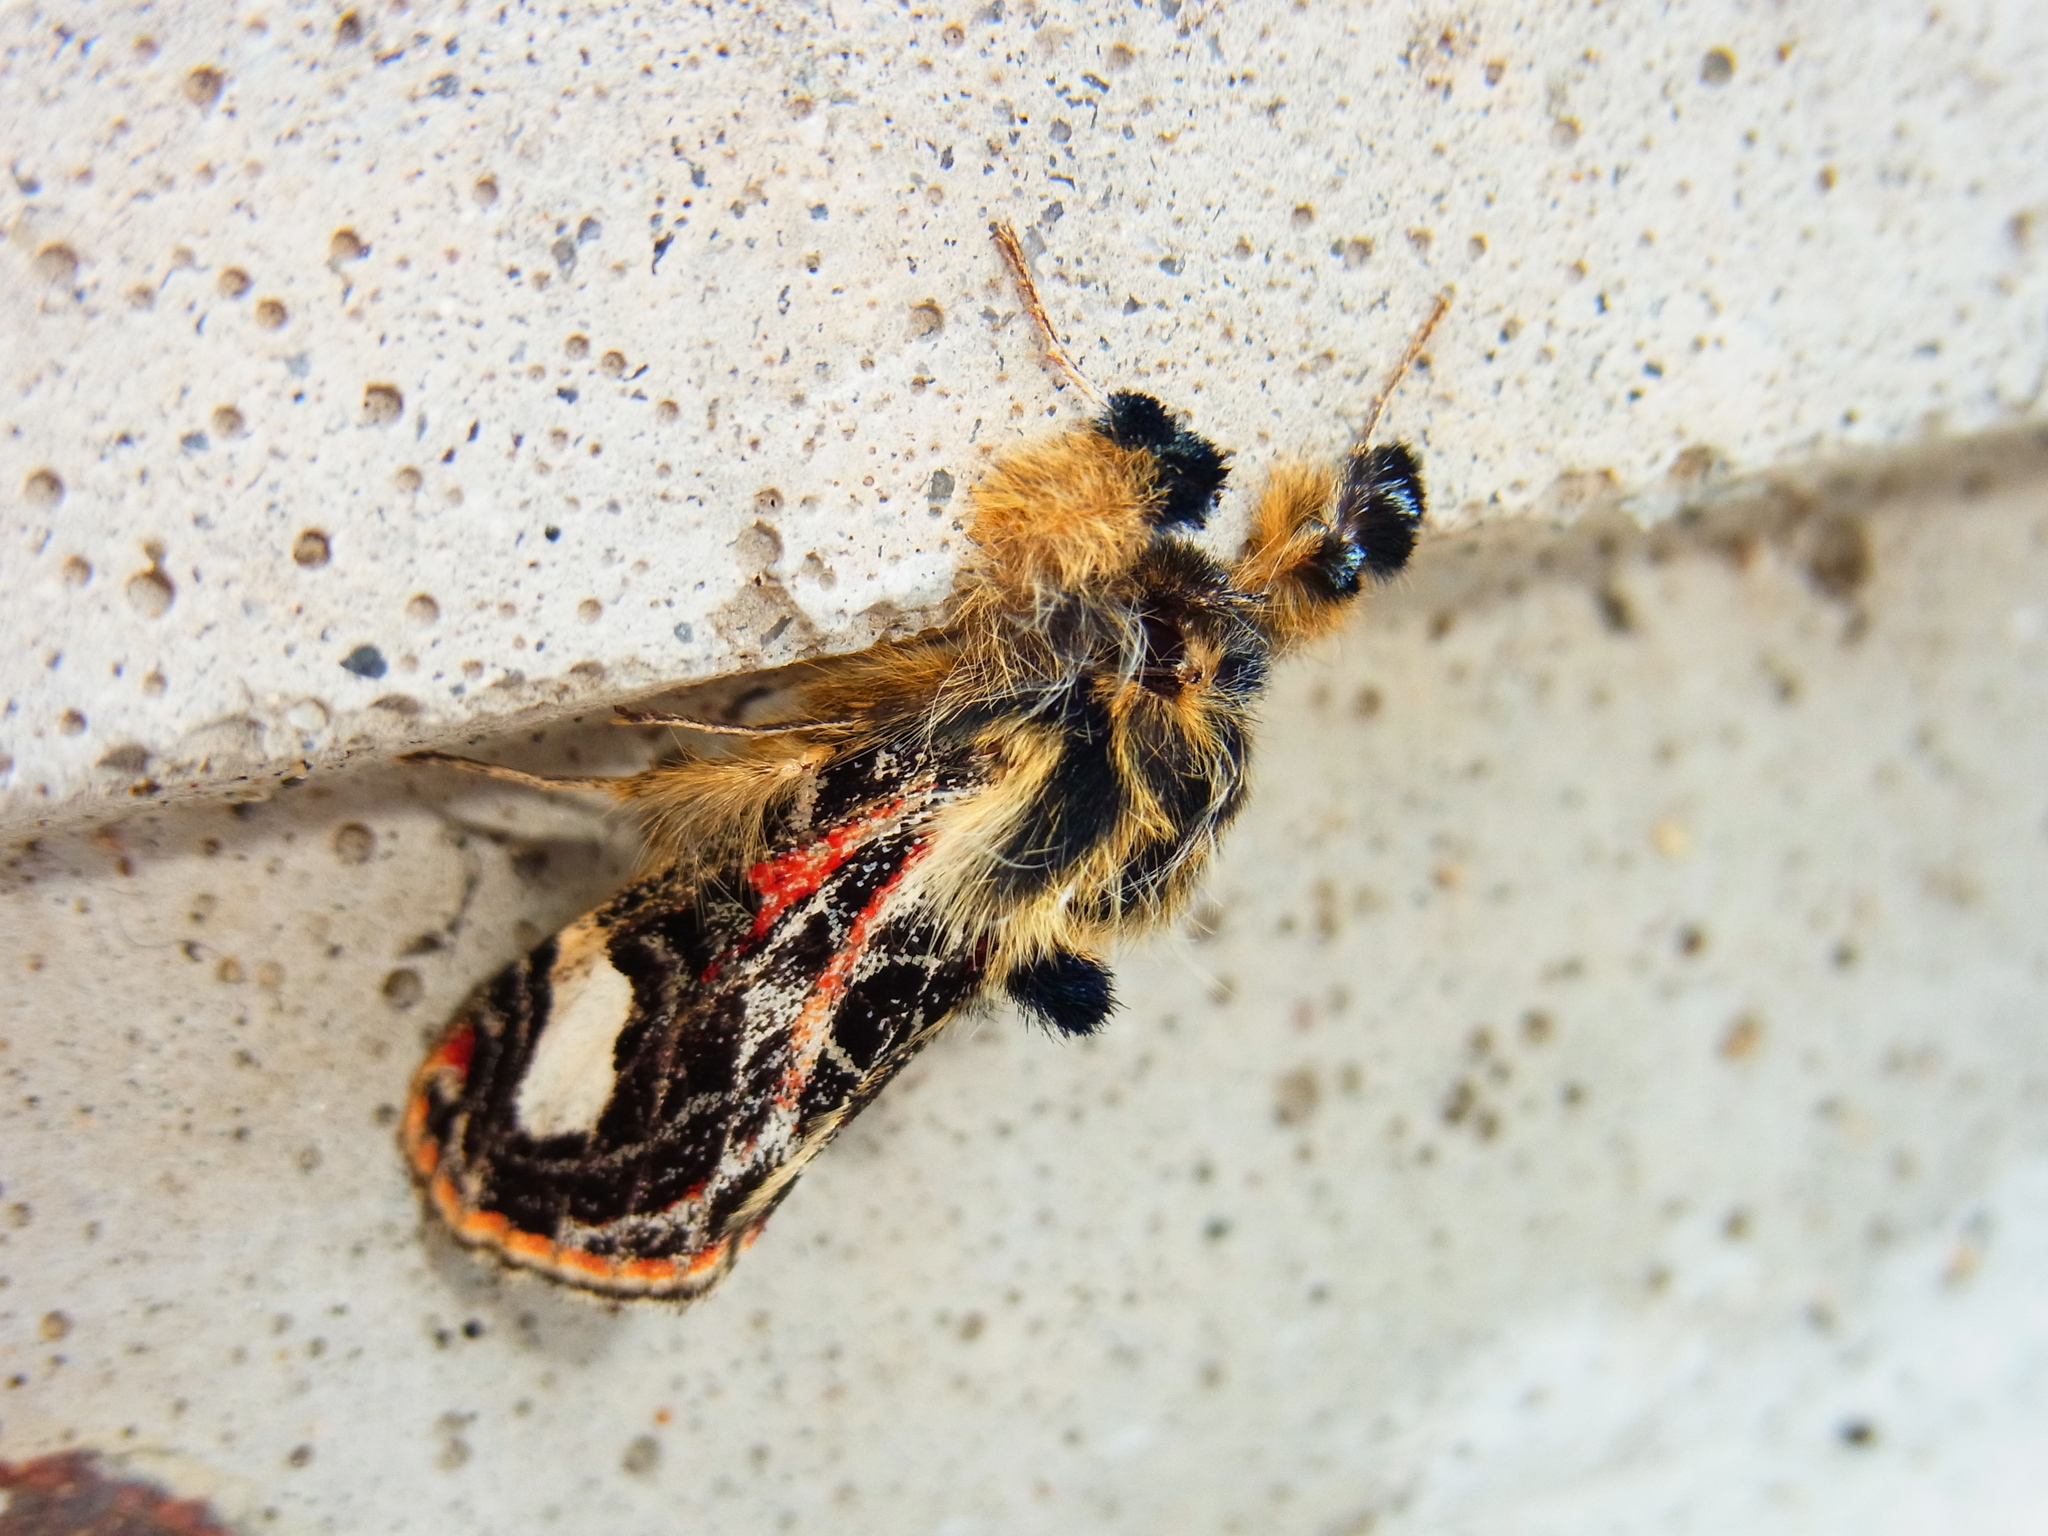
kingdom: Animalia
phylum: Arthropoda
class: Insecta
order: Lepidoptera
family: Noctuidae
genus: Maikona
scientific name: Maikona jezoensis
